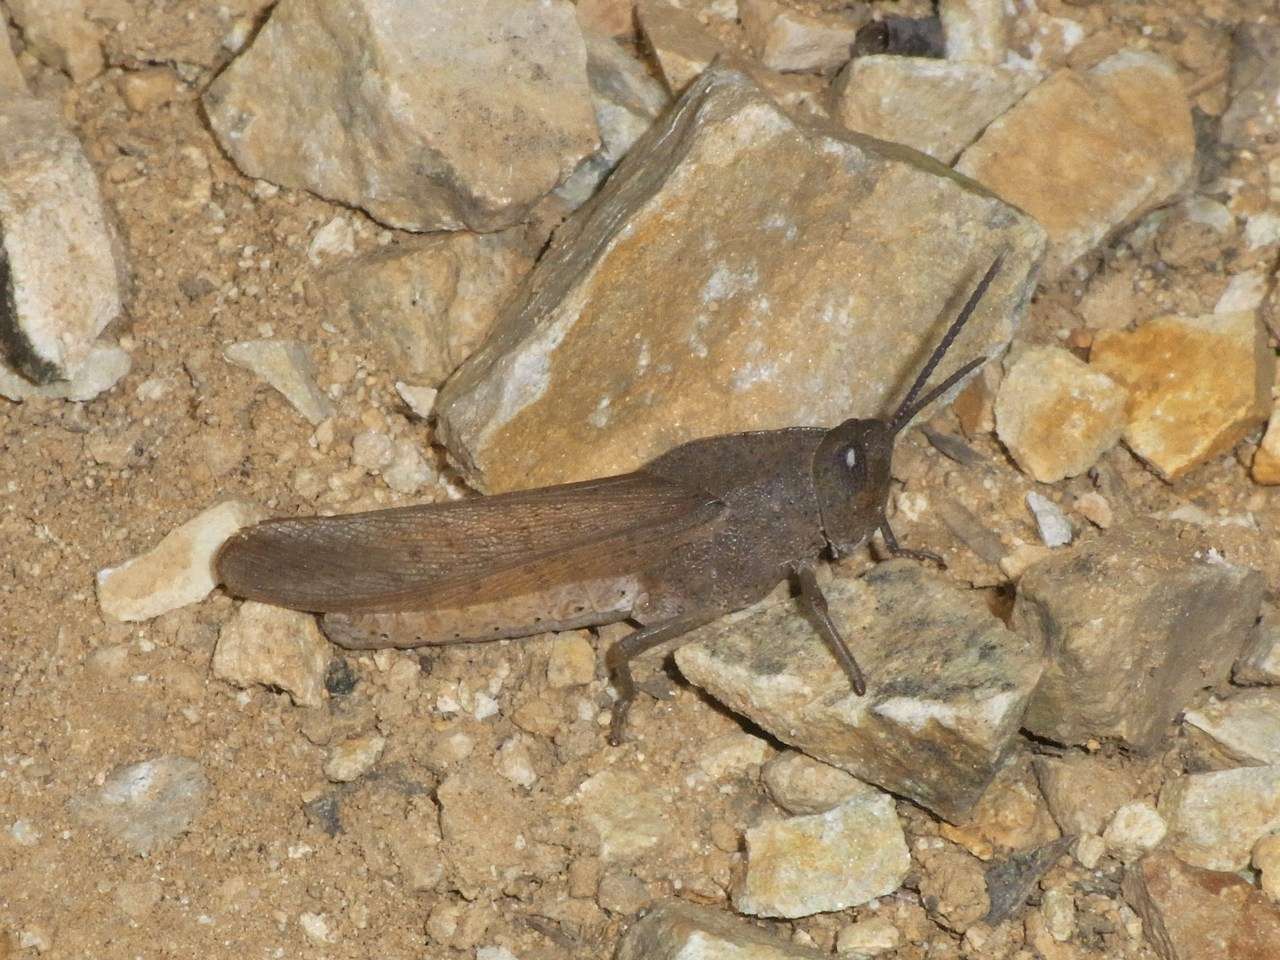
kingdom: Animalia
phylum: Arthropoda
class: Insecta
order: Orthoptera
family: Acrididae
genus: Goniaea
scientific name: Goniaea australasiae
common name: Gumleaf grasshopper
